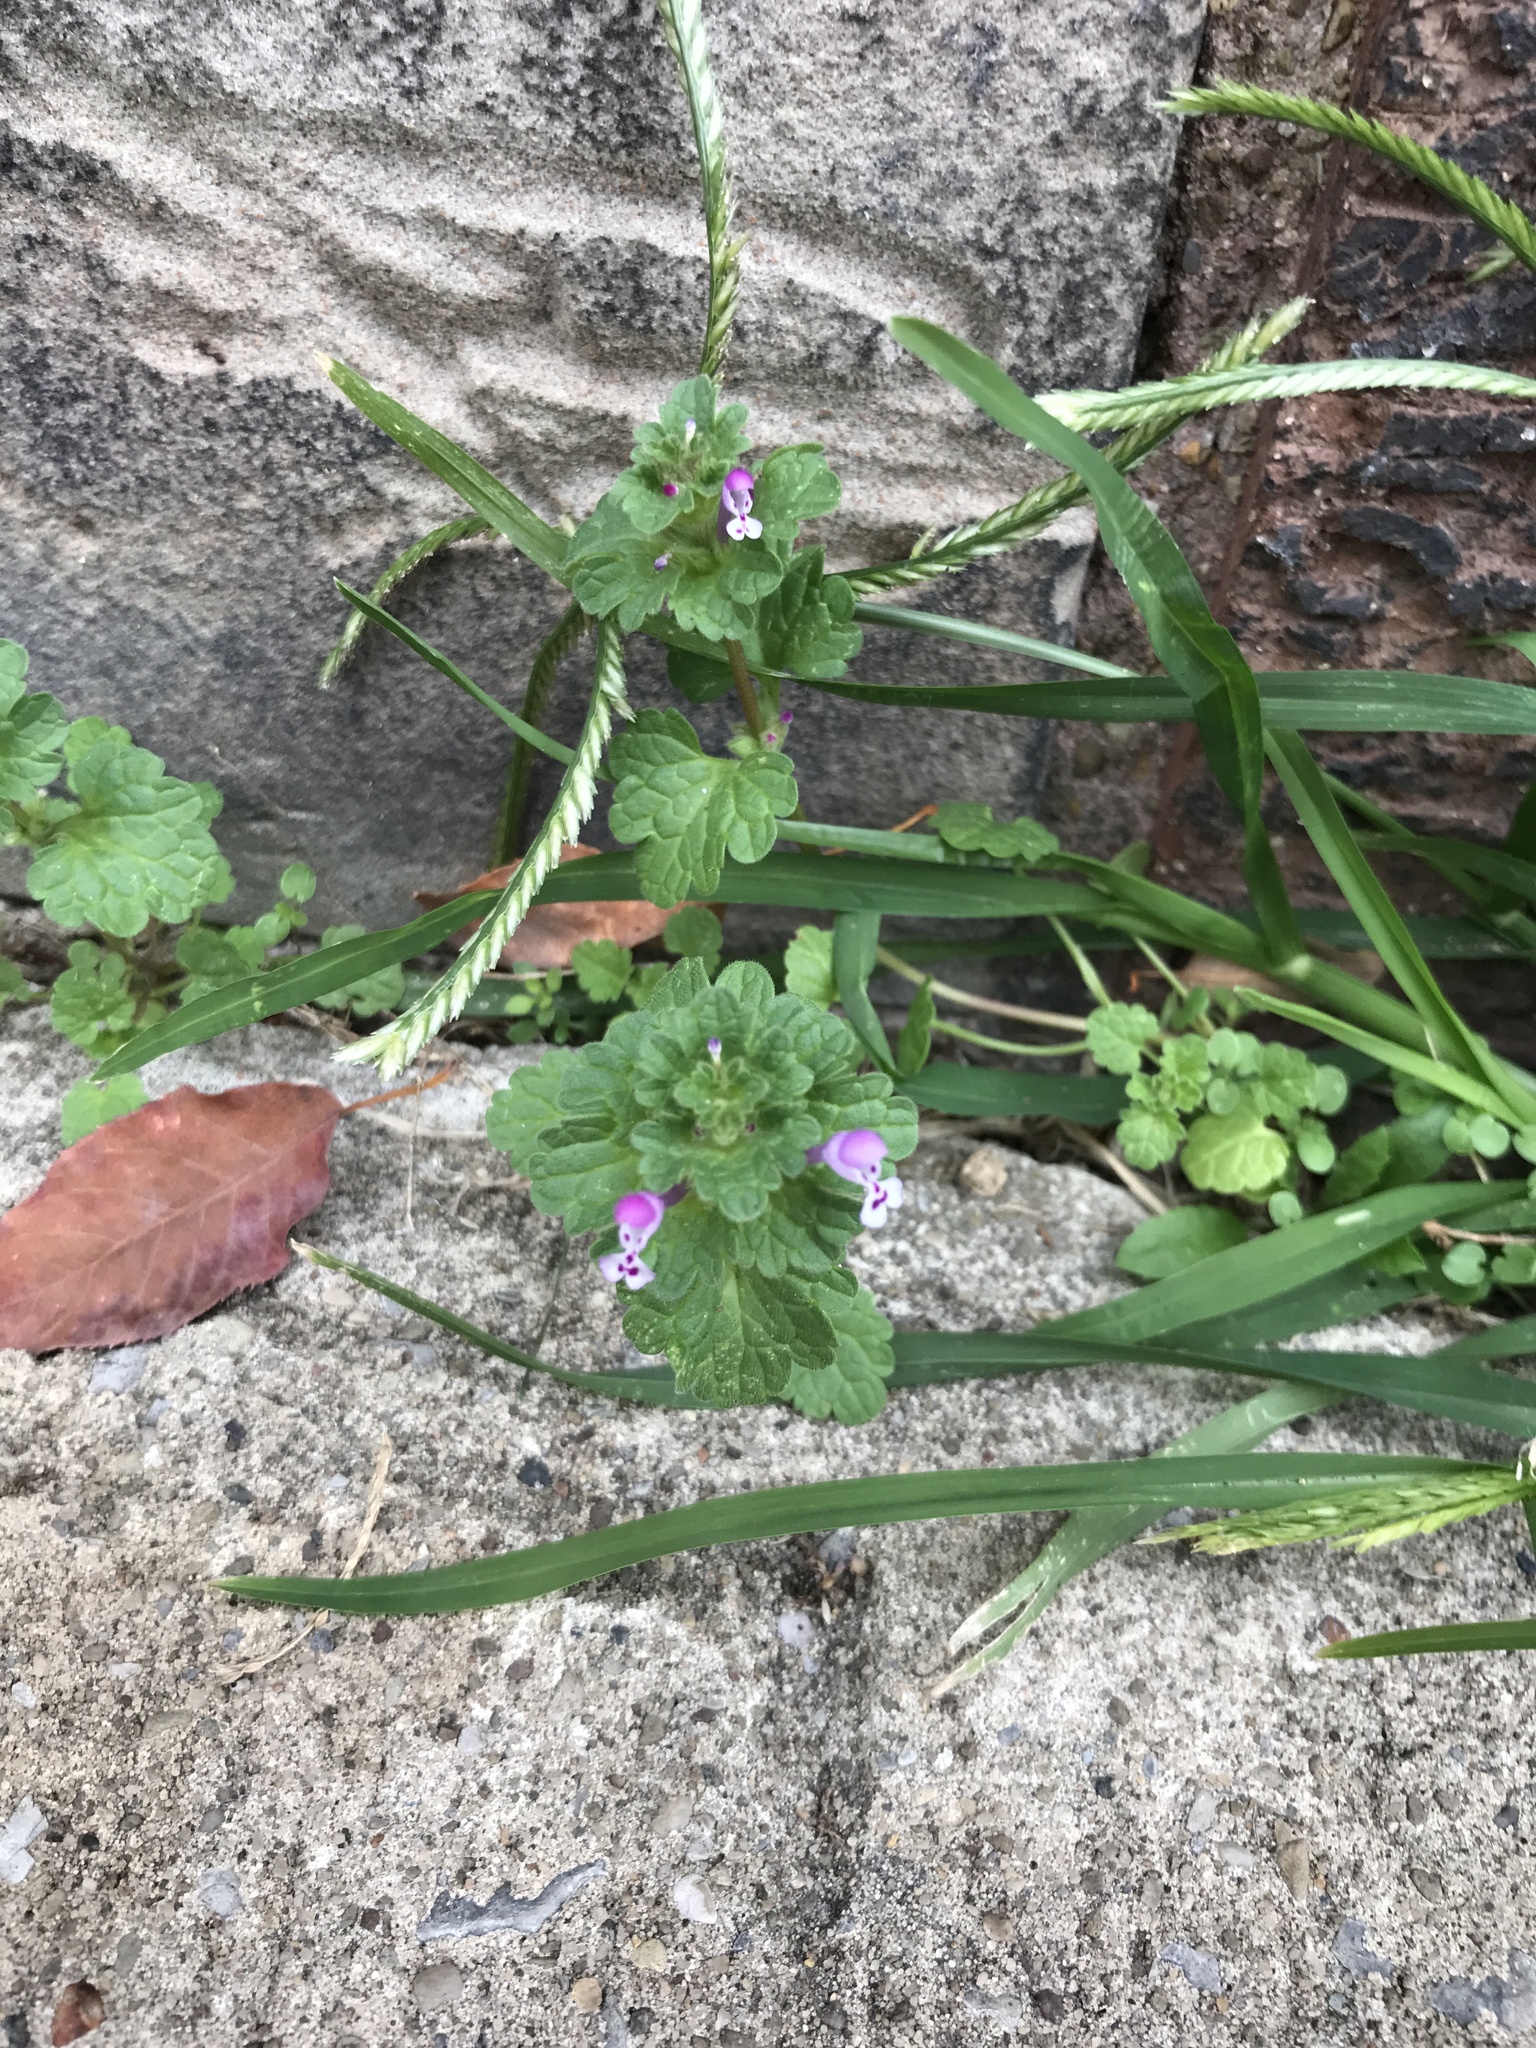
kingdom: Plantae
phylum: Tracheophyta
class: Magnoliopsida
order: Lamiales
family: Lamiaceae
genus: Lamium
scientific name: Lamium amplexicaule
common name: Henbit dead-nettle
